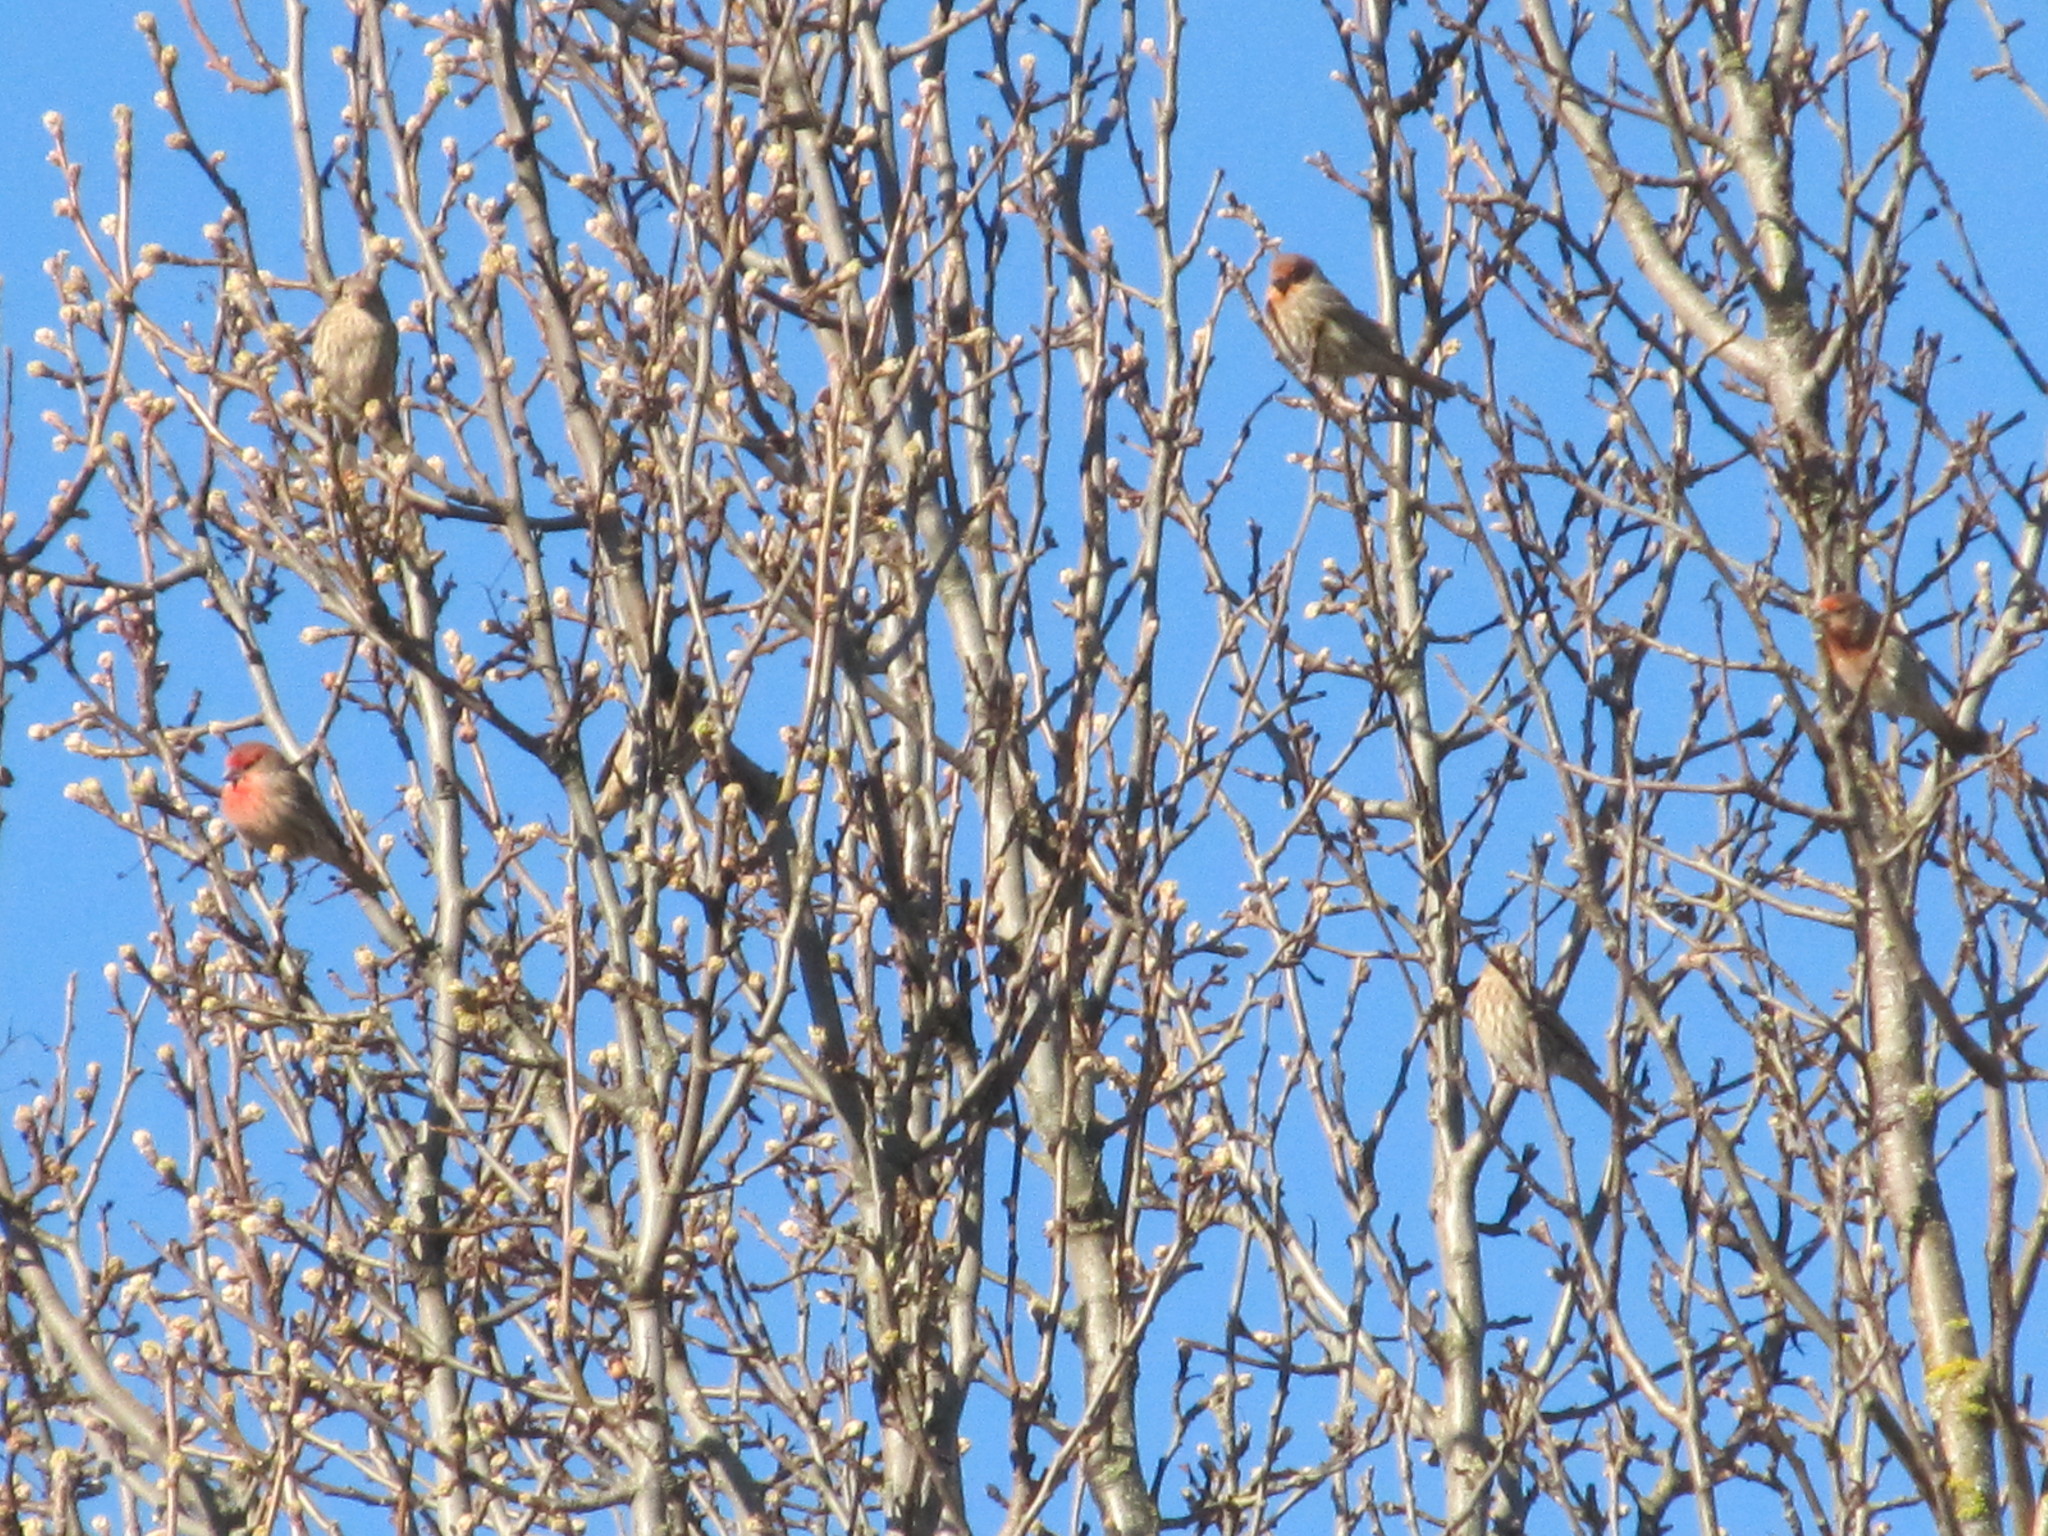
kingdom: Animalia
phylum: Chordata
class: Aves
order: Passeriformes
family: Fringillidae
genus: Haemorhous
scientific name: Haemorhous mexicanus
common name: House finch
